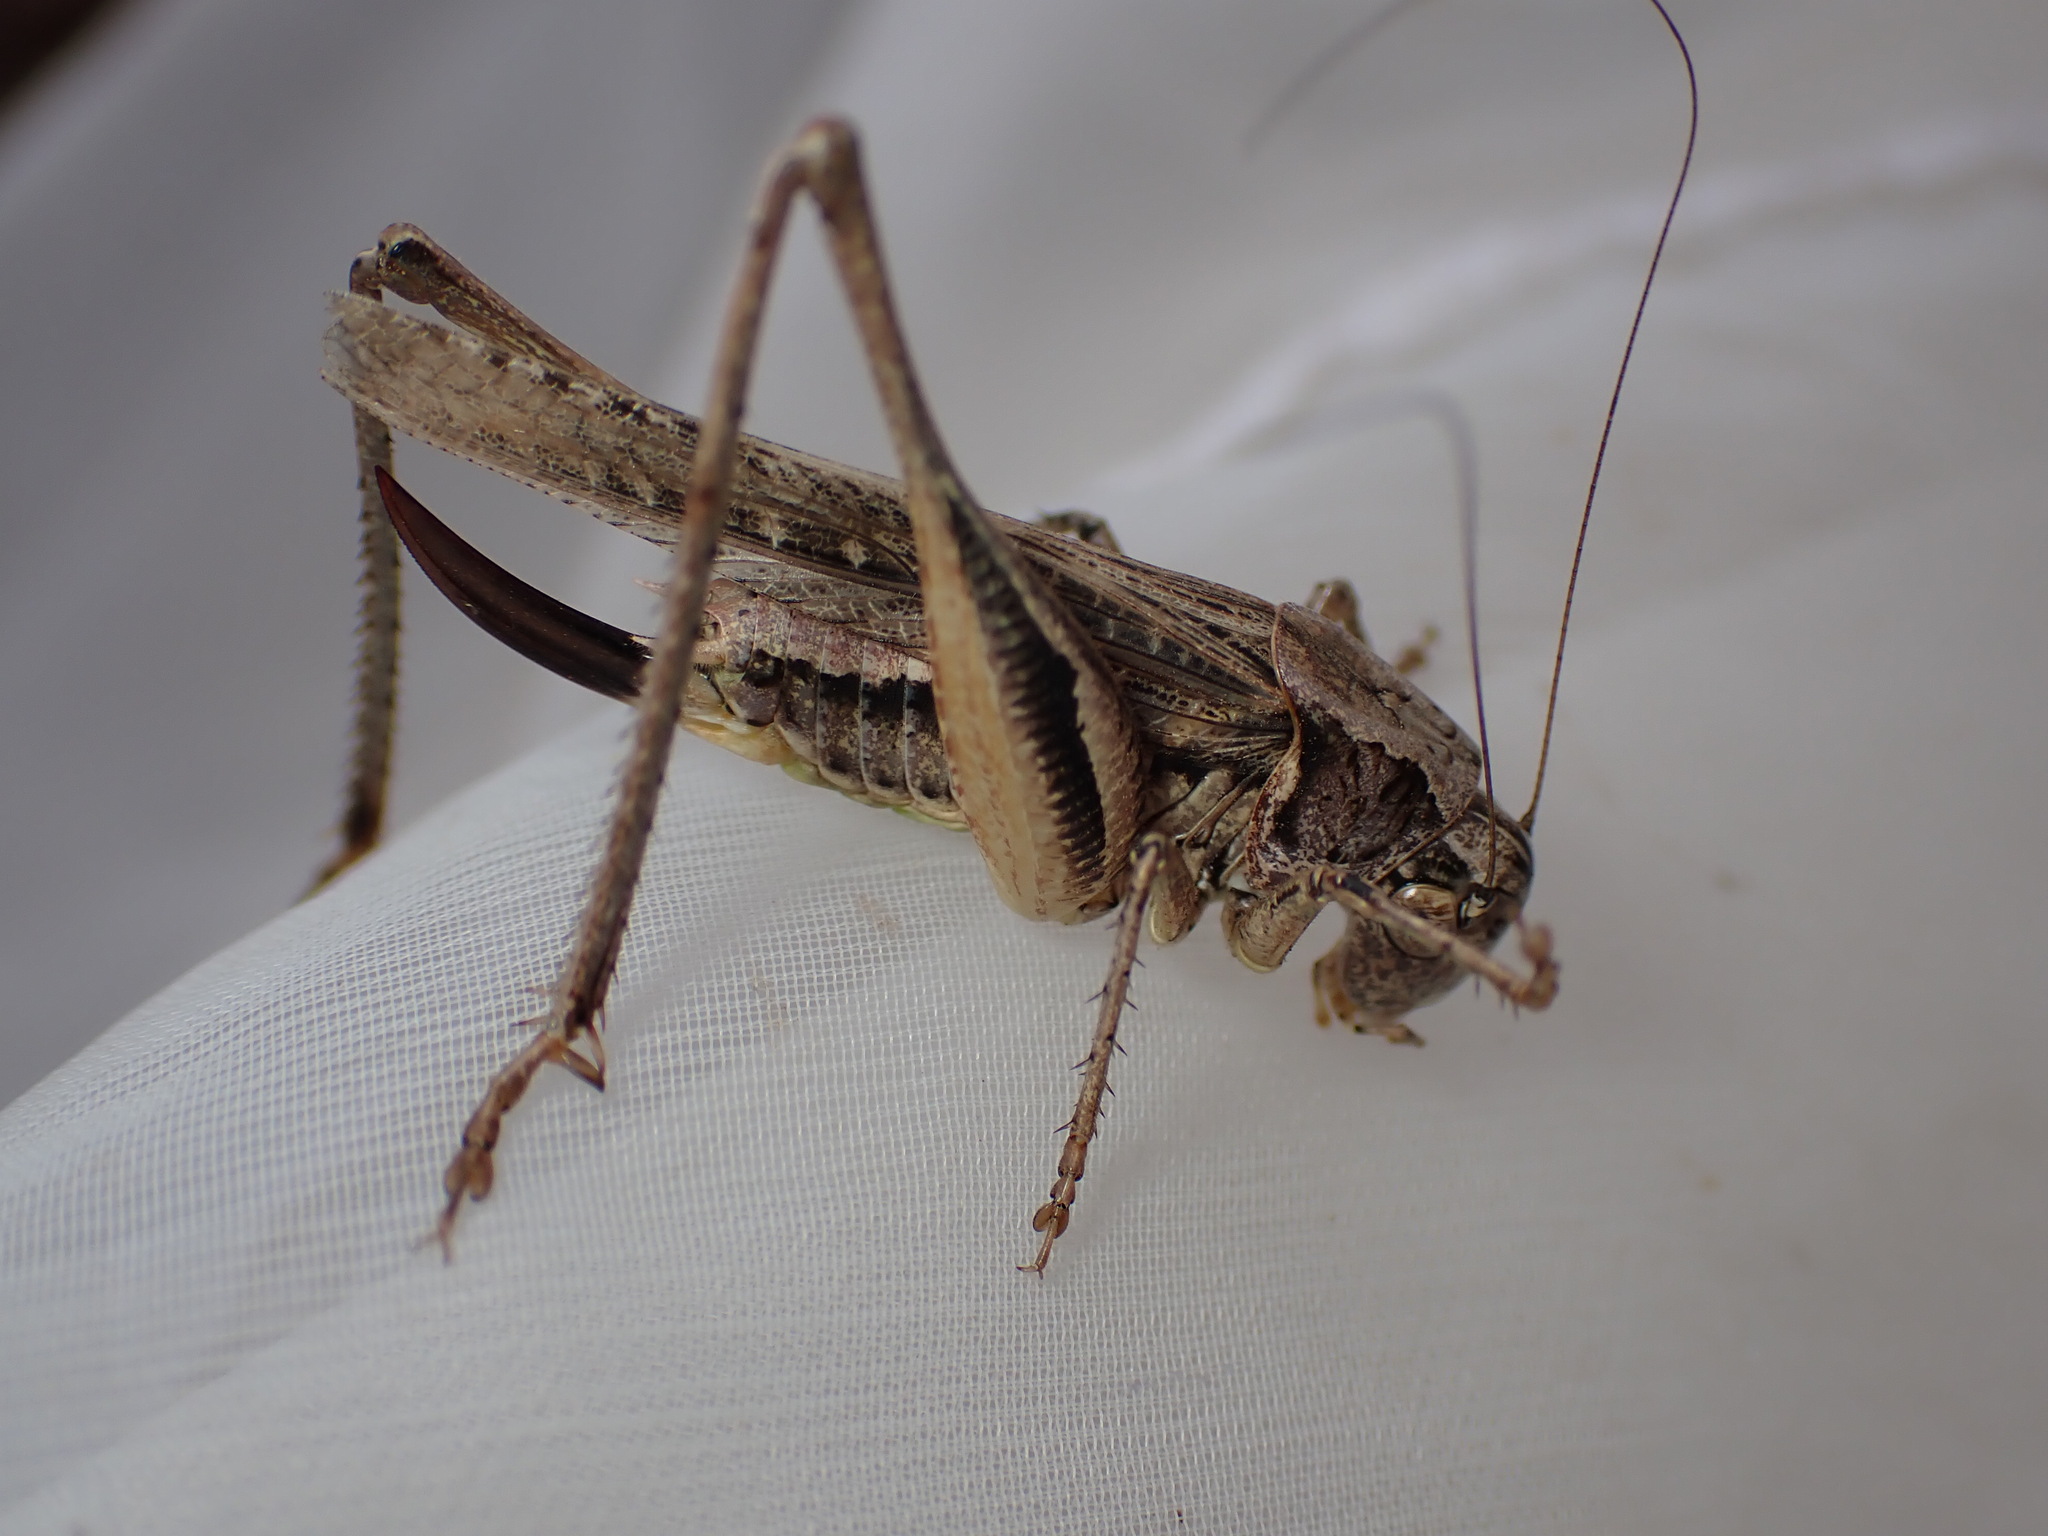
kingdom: Animalia
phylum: Arthropoda
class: Insecta
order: Orthoptera
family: Tettigoniidae
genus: Platycleis
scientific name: Platycleis albopunctata
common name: Grey bush-cricket
